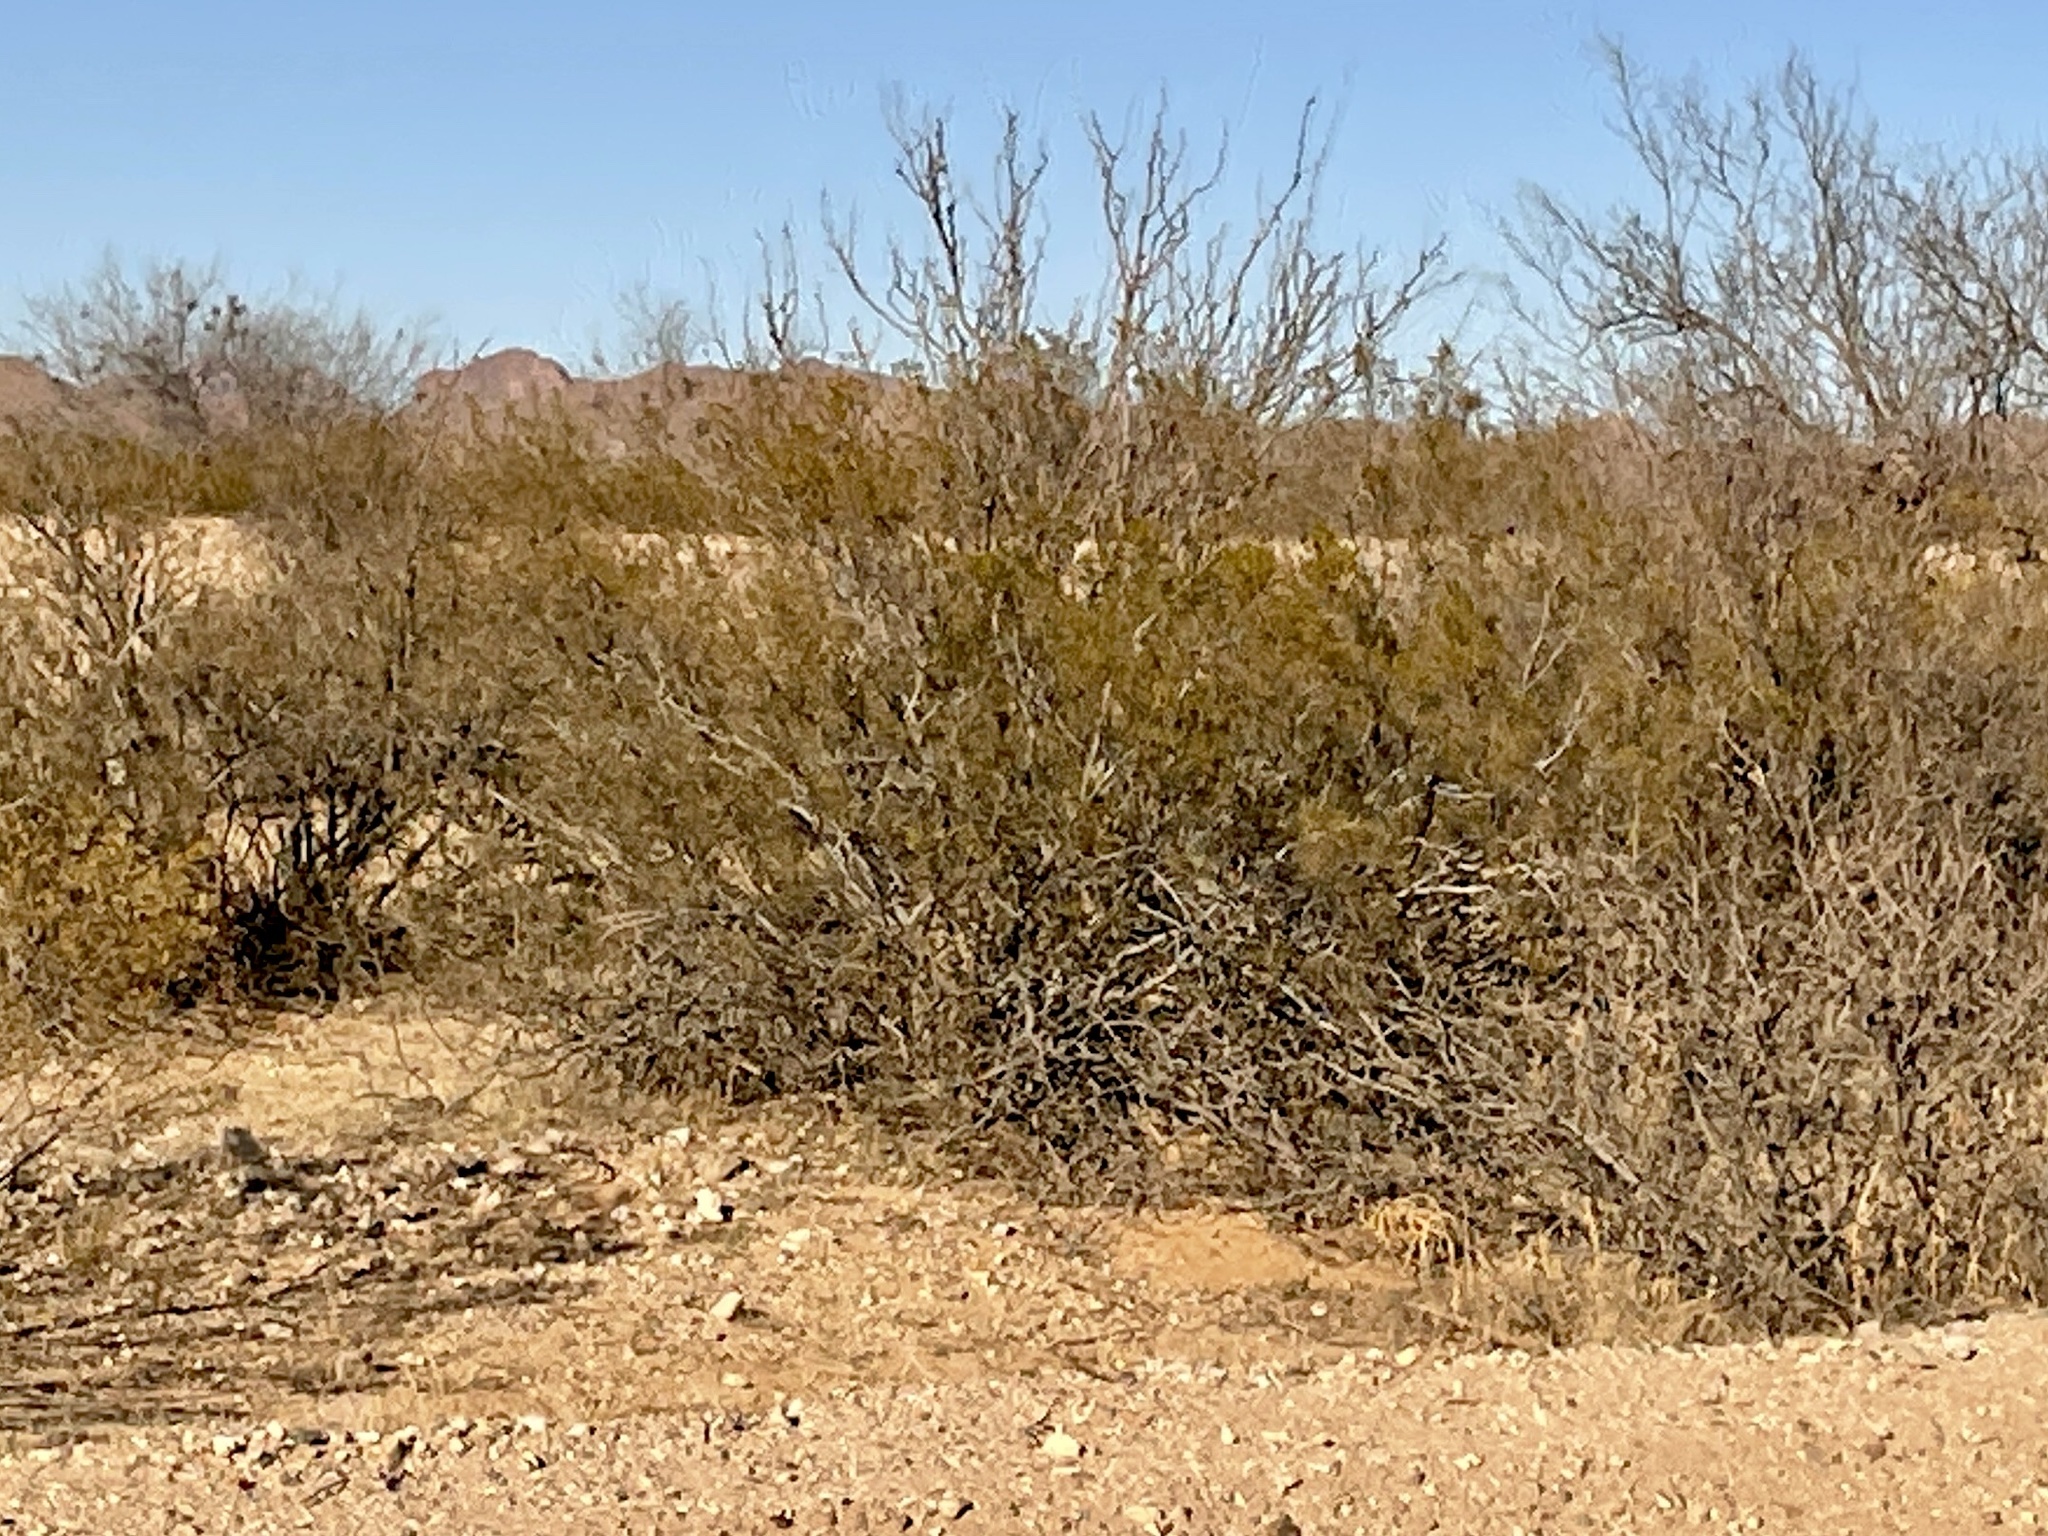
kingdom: Plantae
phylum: Tracheophyta
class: Magnoliopsida
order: Zygophyllales
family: Zygophyllaceae
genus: Larrea
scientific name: Larrea tridentata
